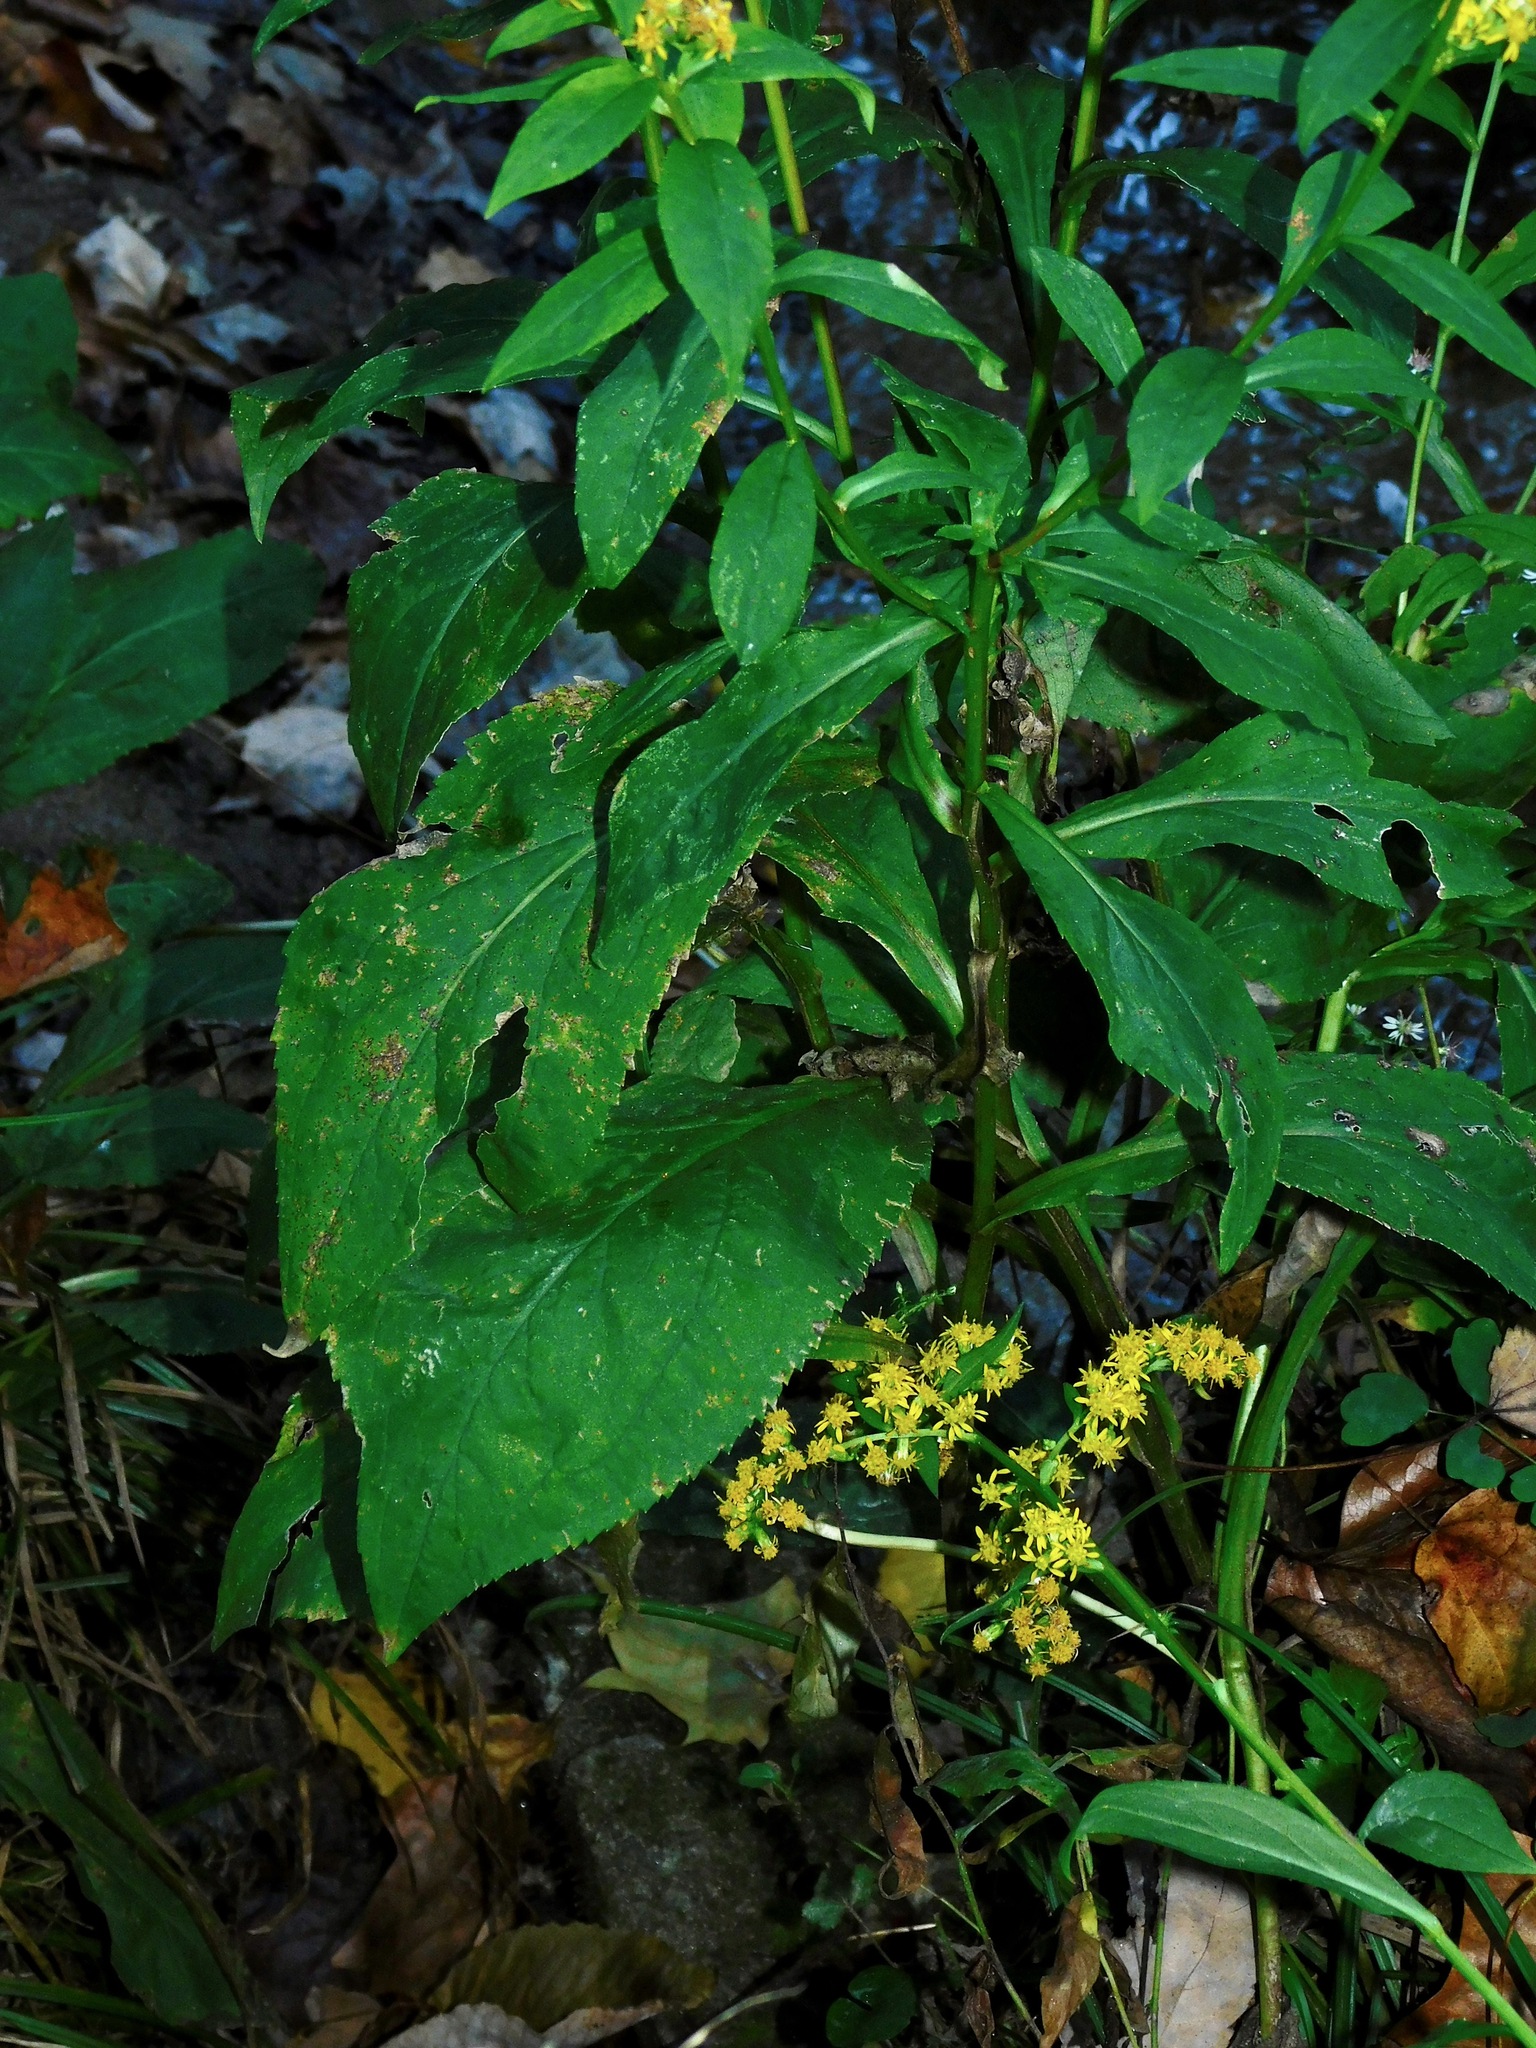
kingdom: Plantae
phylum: Tracheophyta
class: Magnoliopsida
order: Asterales
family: Asteraceae
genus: Solidago
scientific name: Solidago patula
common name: Rough-leaf goldenrod
